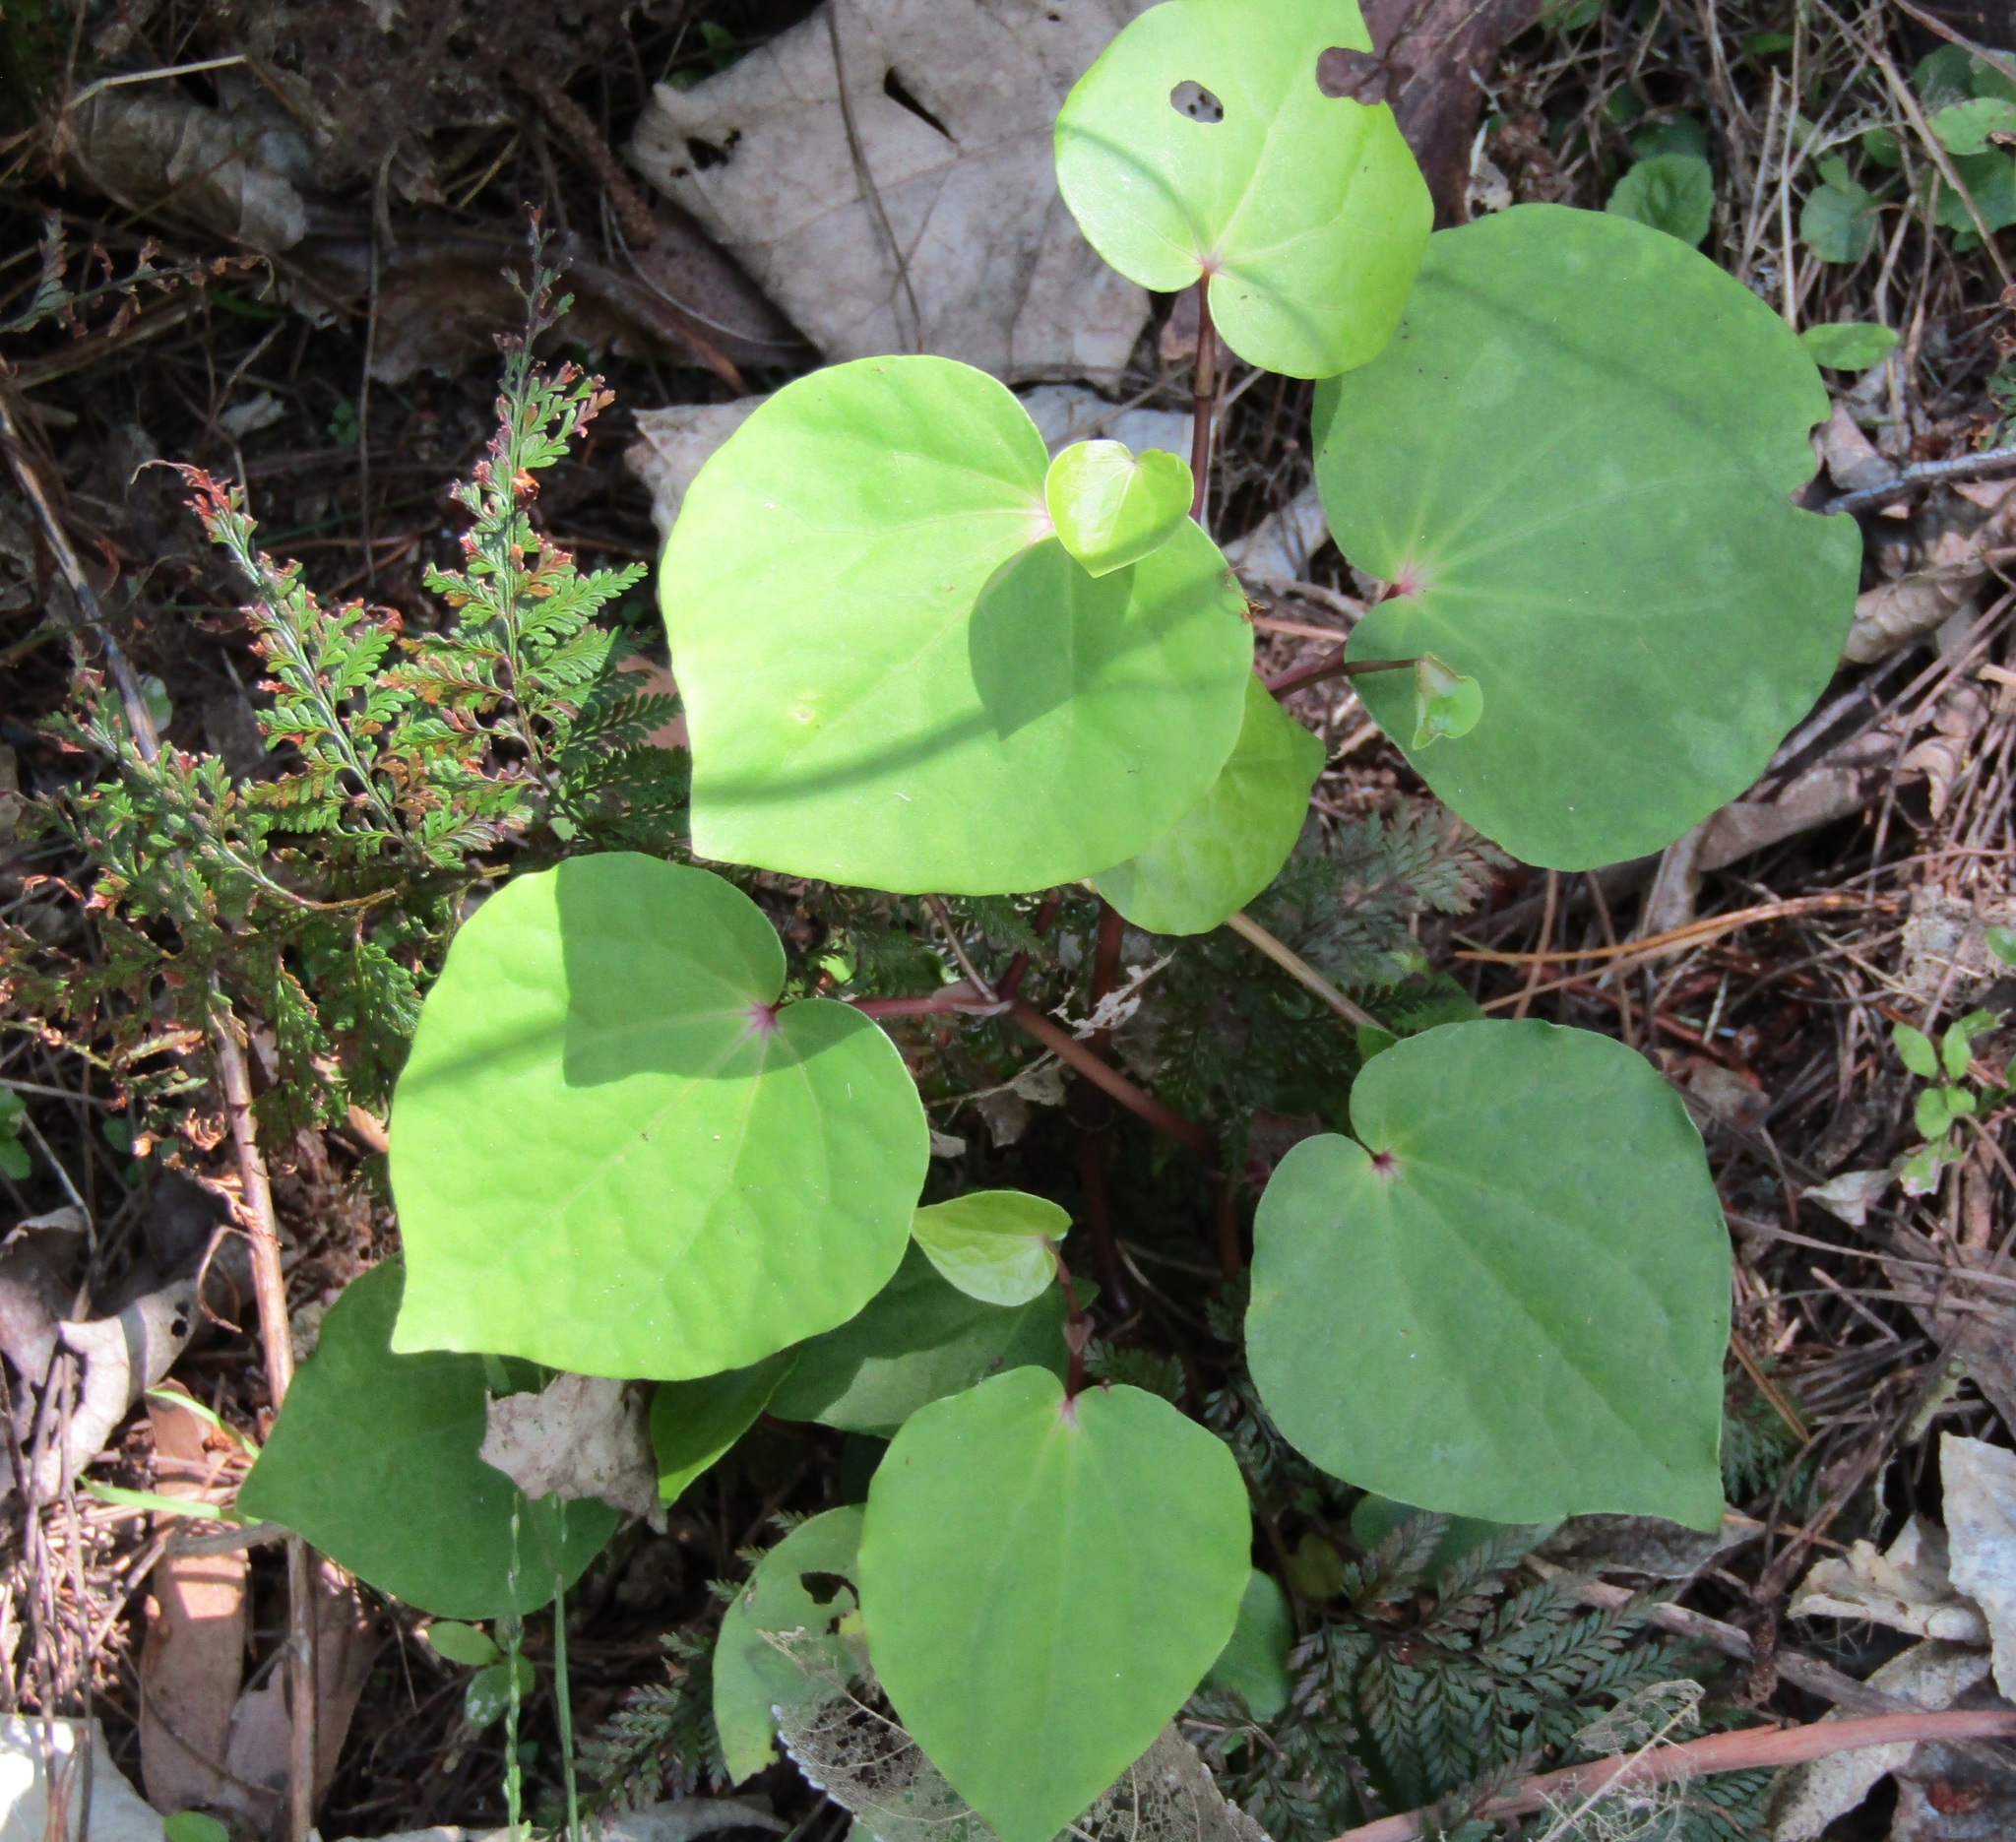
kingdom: Plantae
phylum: Tracheophyta
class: Magnoliopsida
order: Piperales
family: Piperaceae
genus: Macropiper
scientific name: Macropiper excelsum
